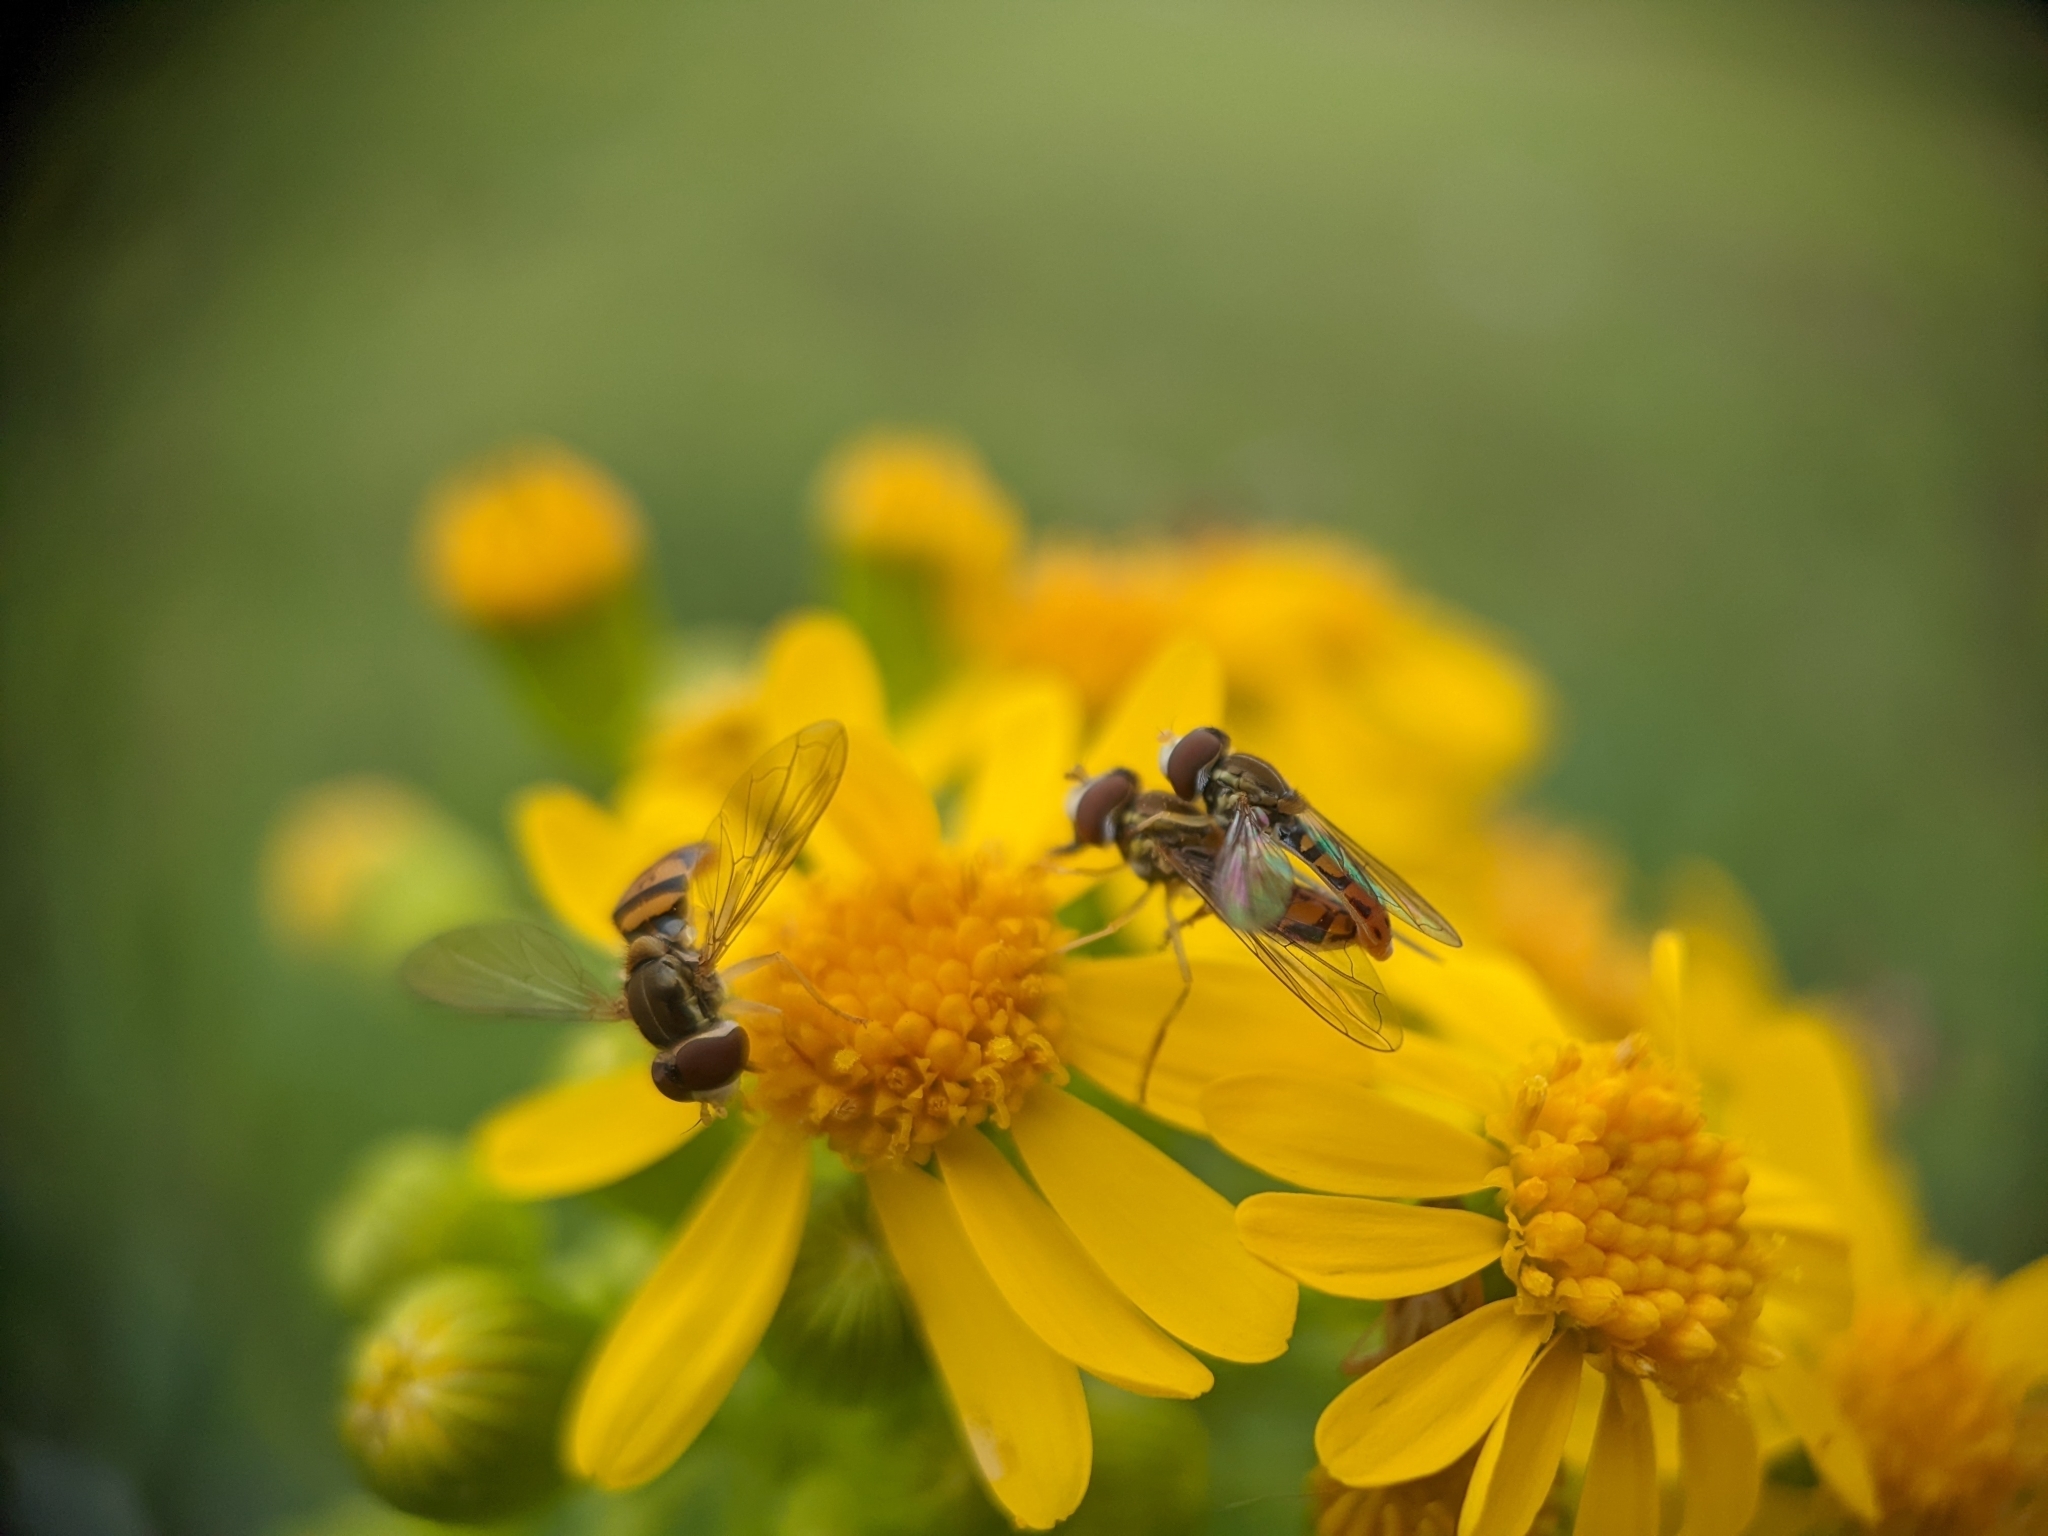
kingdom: Animalia
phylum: Arthropoda
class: Insecta
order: Diptera
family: Syrphidae
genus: Toxomerus
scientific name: Toxomerus marginatus
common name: Syrphid fly
